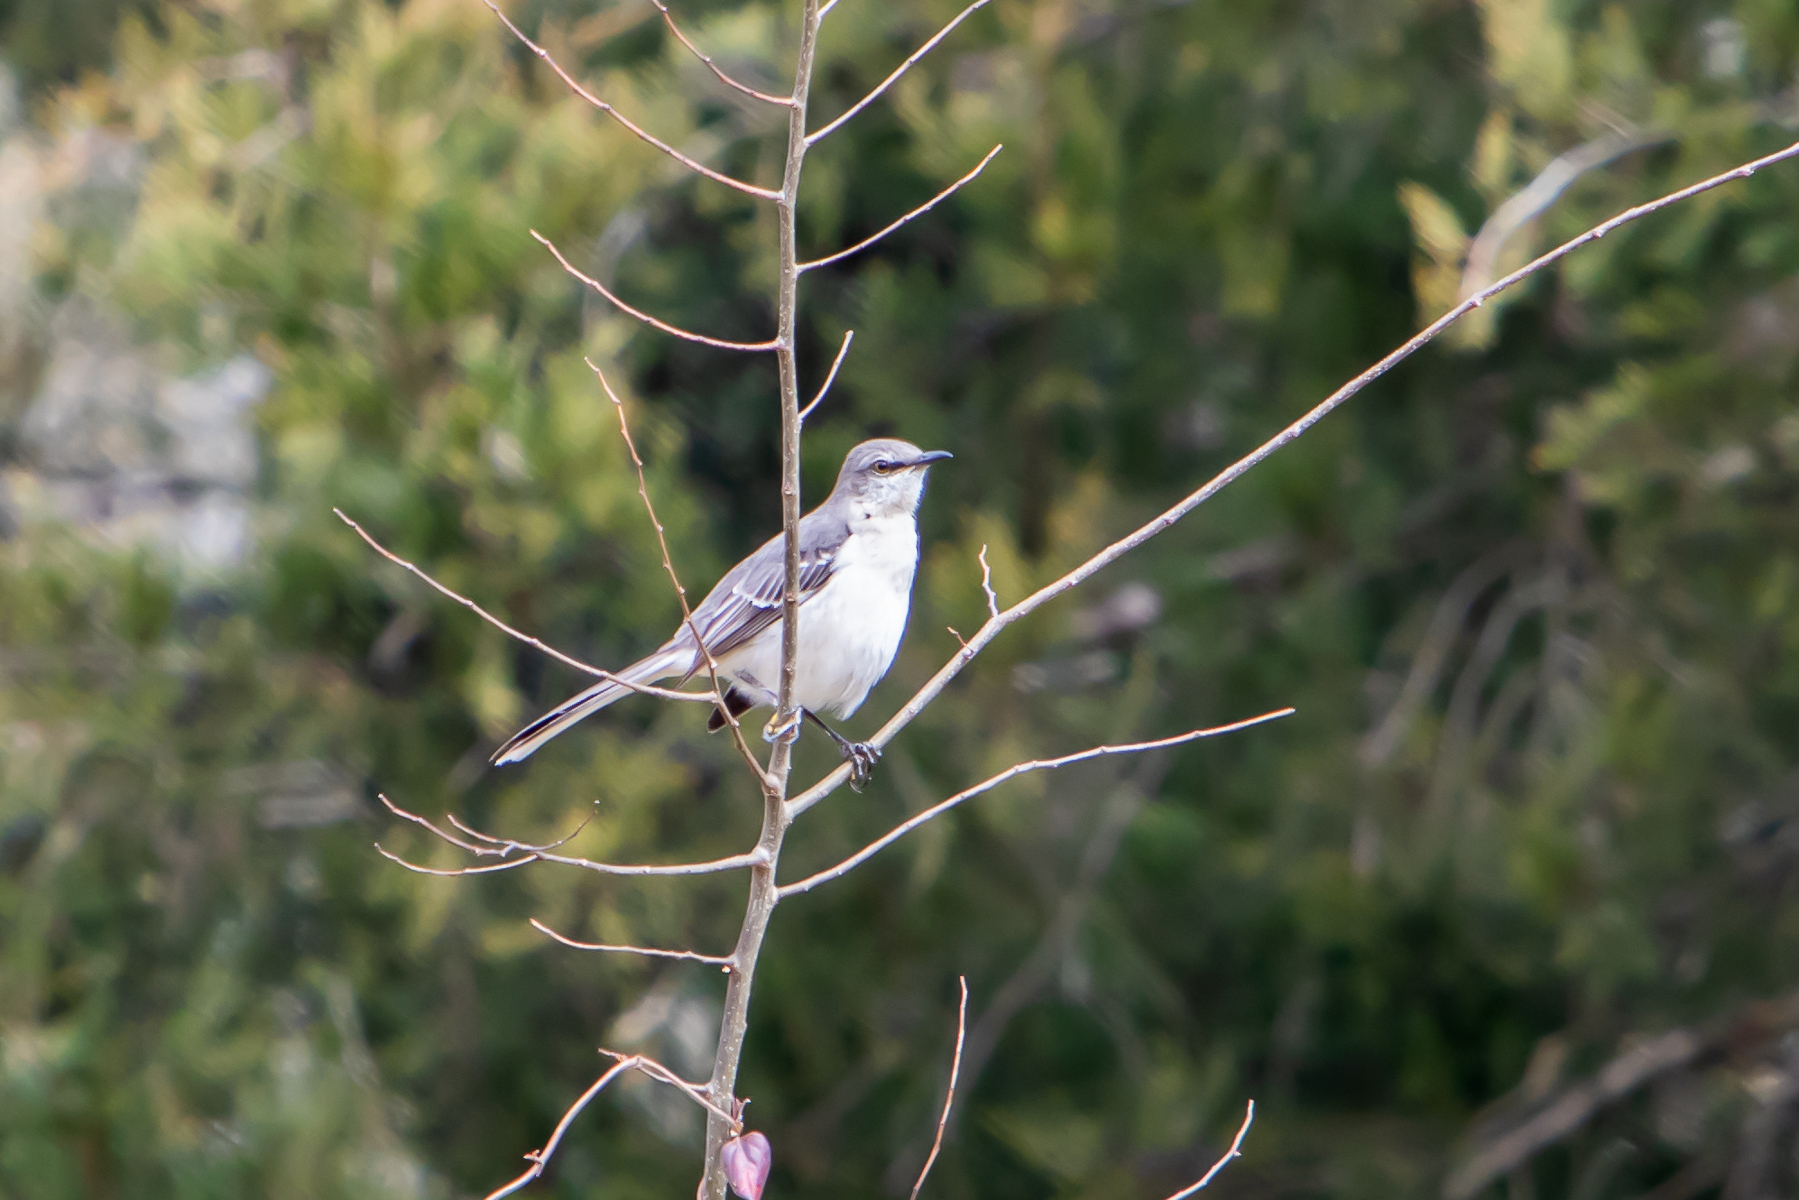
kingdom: Animalia
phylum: Chordata
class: Aves
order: Passeriformes
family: Mimidae
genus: Mimus
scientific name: Mimus polyglottos
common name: Northern mockingbird
